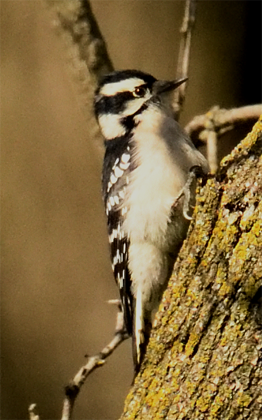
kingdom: Animalia
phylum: Chordata
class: Aves
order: Piciformes
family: Picidae
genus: Dryobates
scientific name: Dryobates pubescens
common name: Downy woodpecker
